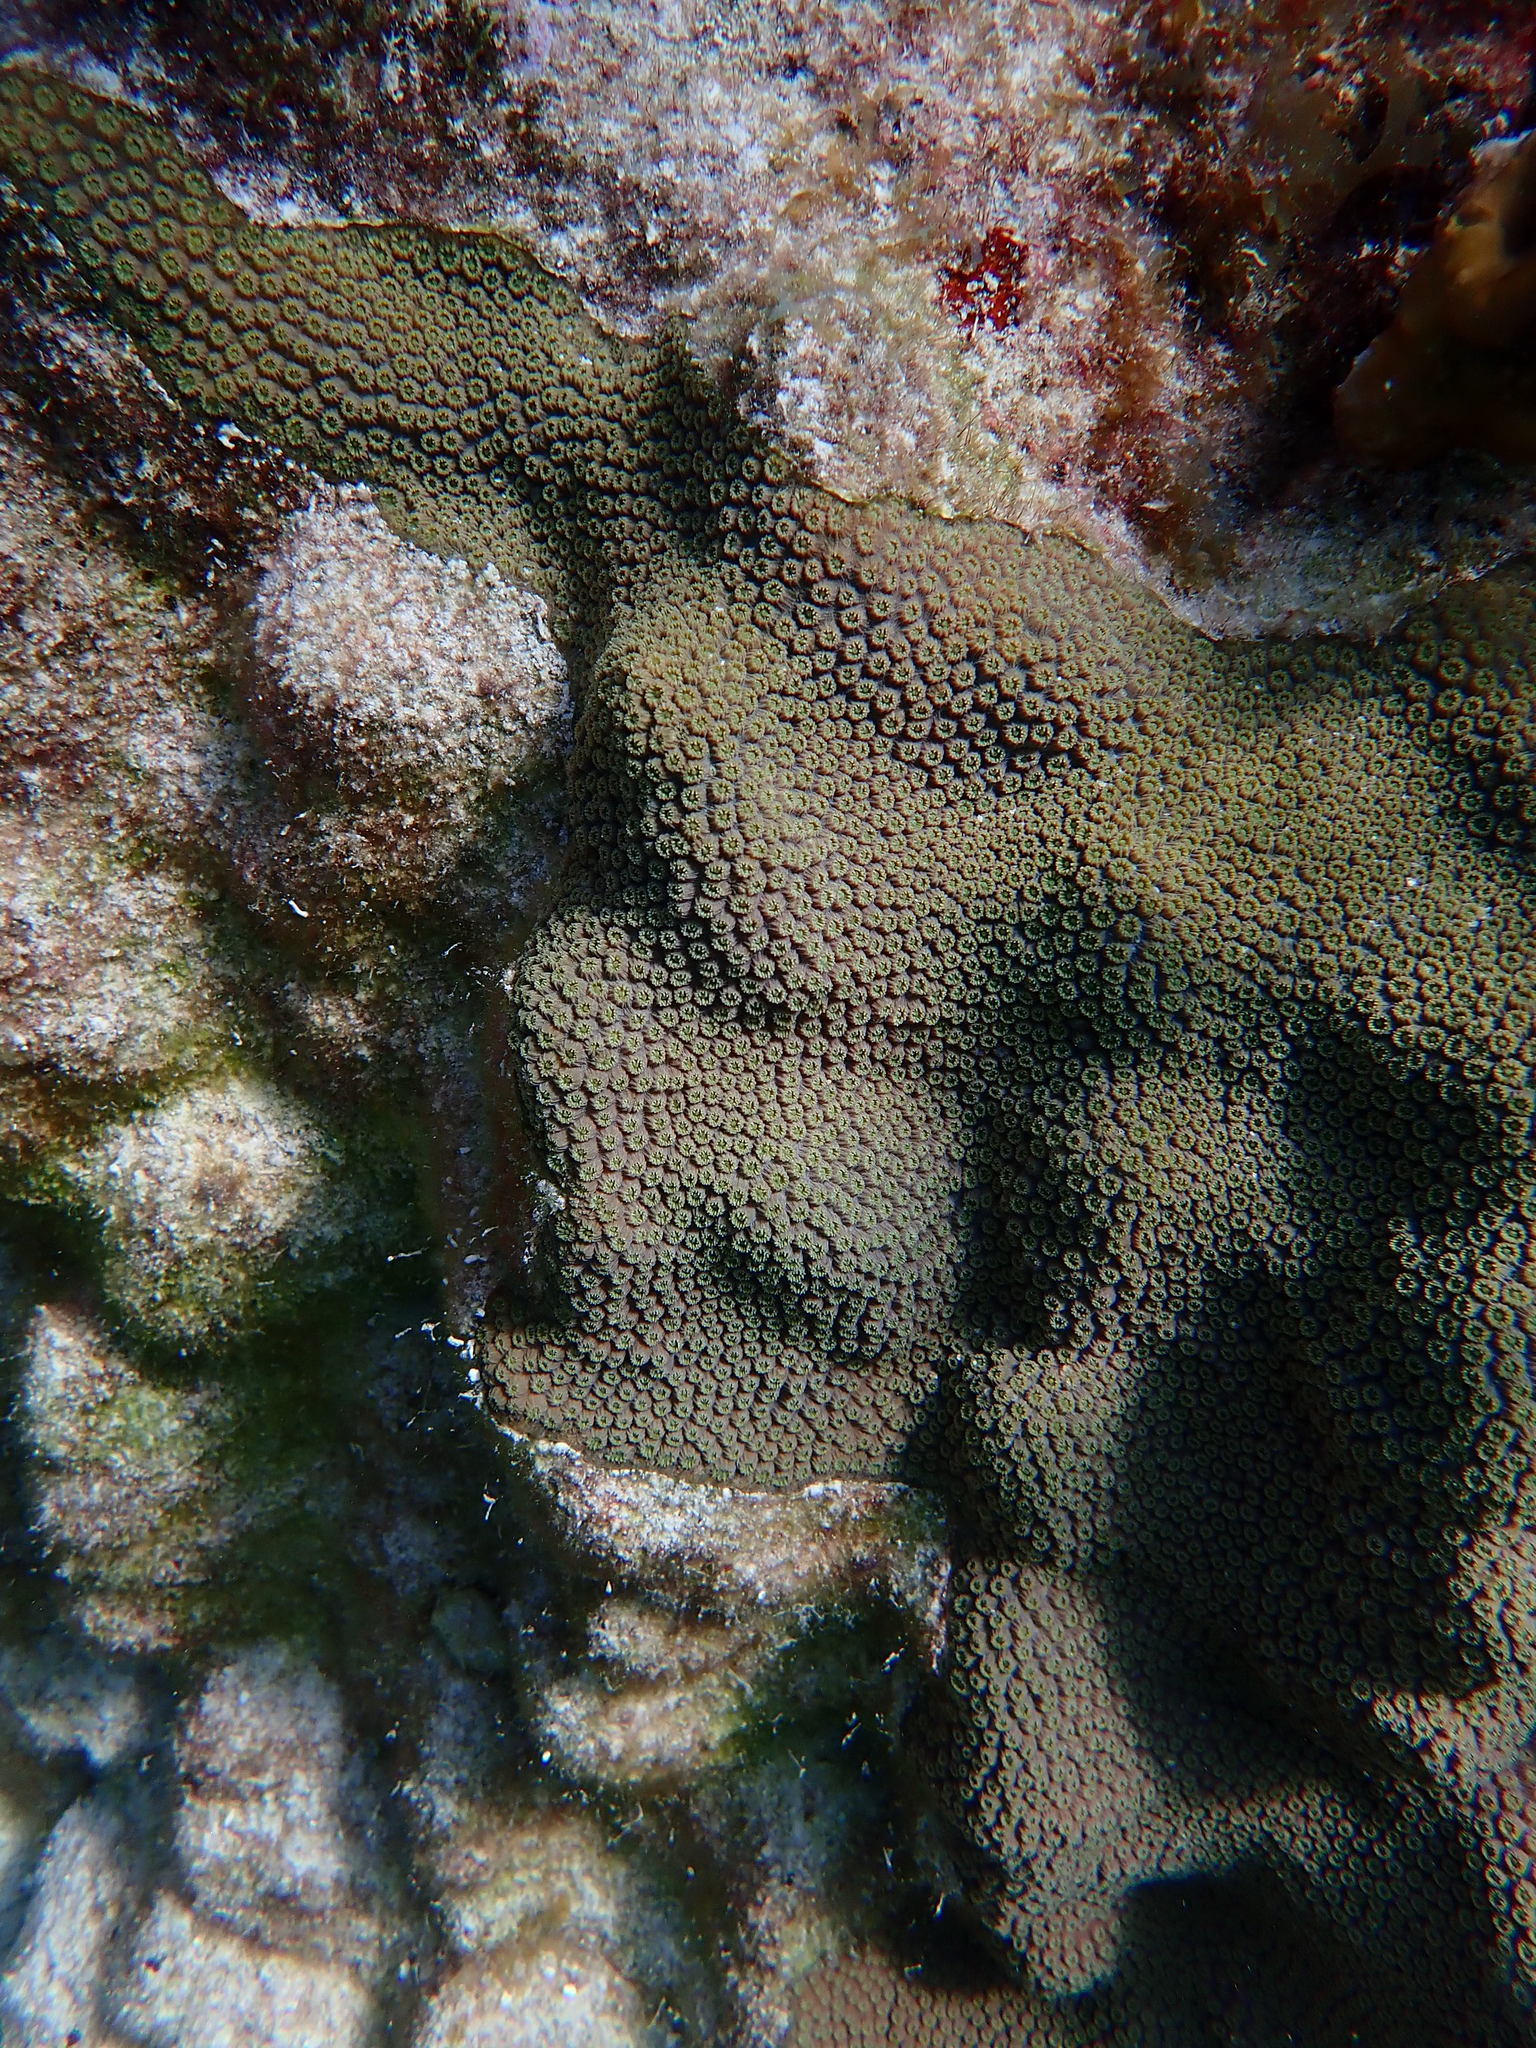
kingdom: Animalia
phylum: Cnidaria
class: Anthozoa
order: Scleractinia
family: Merulinidae
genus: Orbicella
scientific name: Orbicella faveolata
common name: Mountainous star coral
